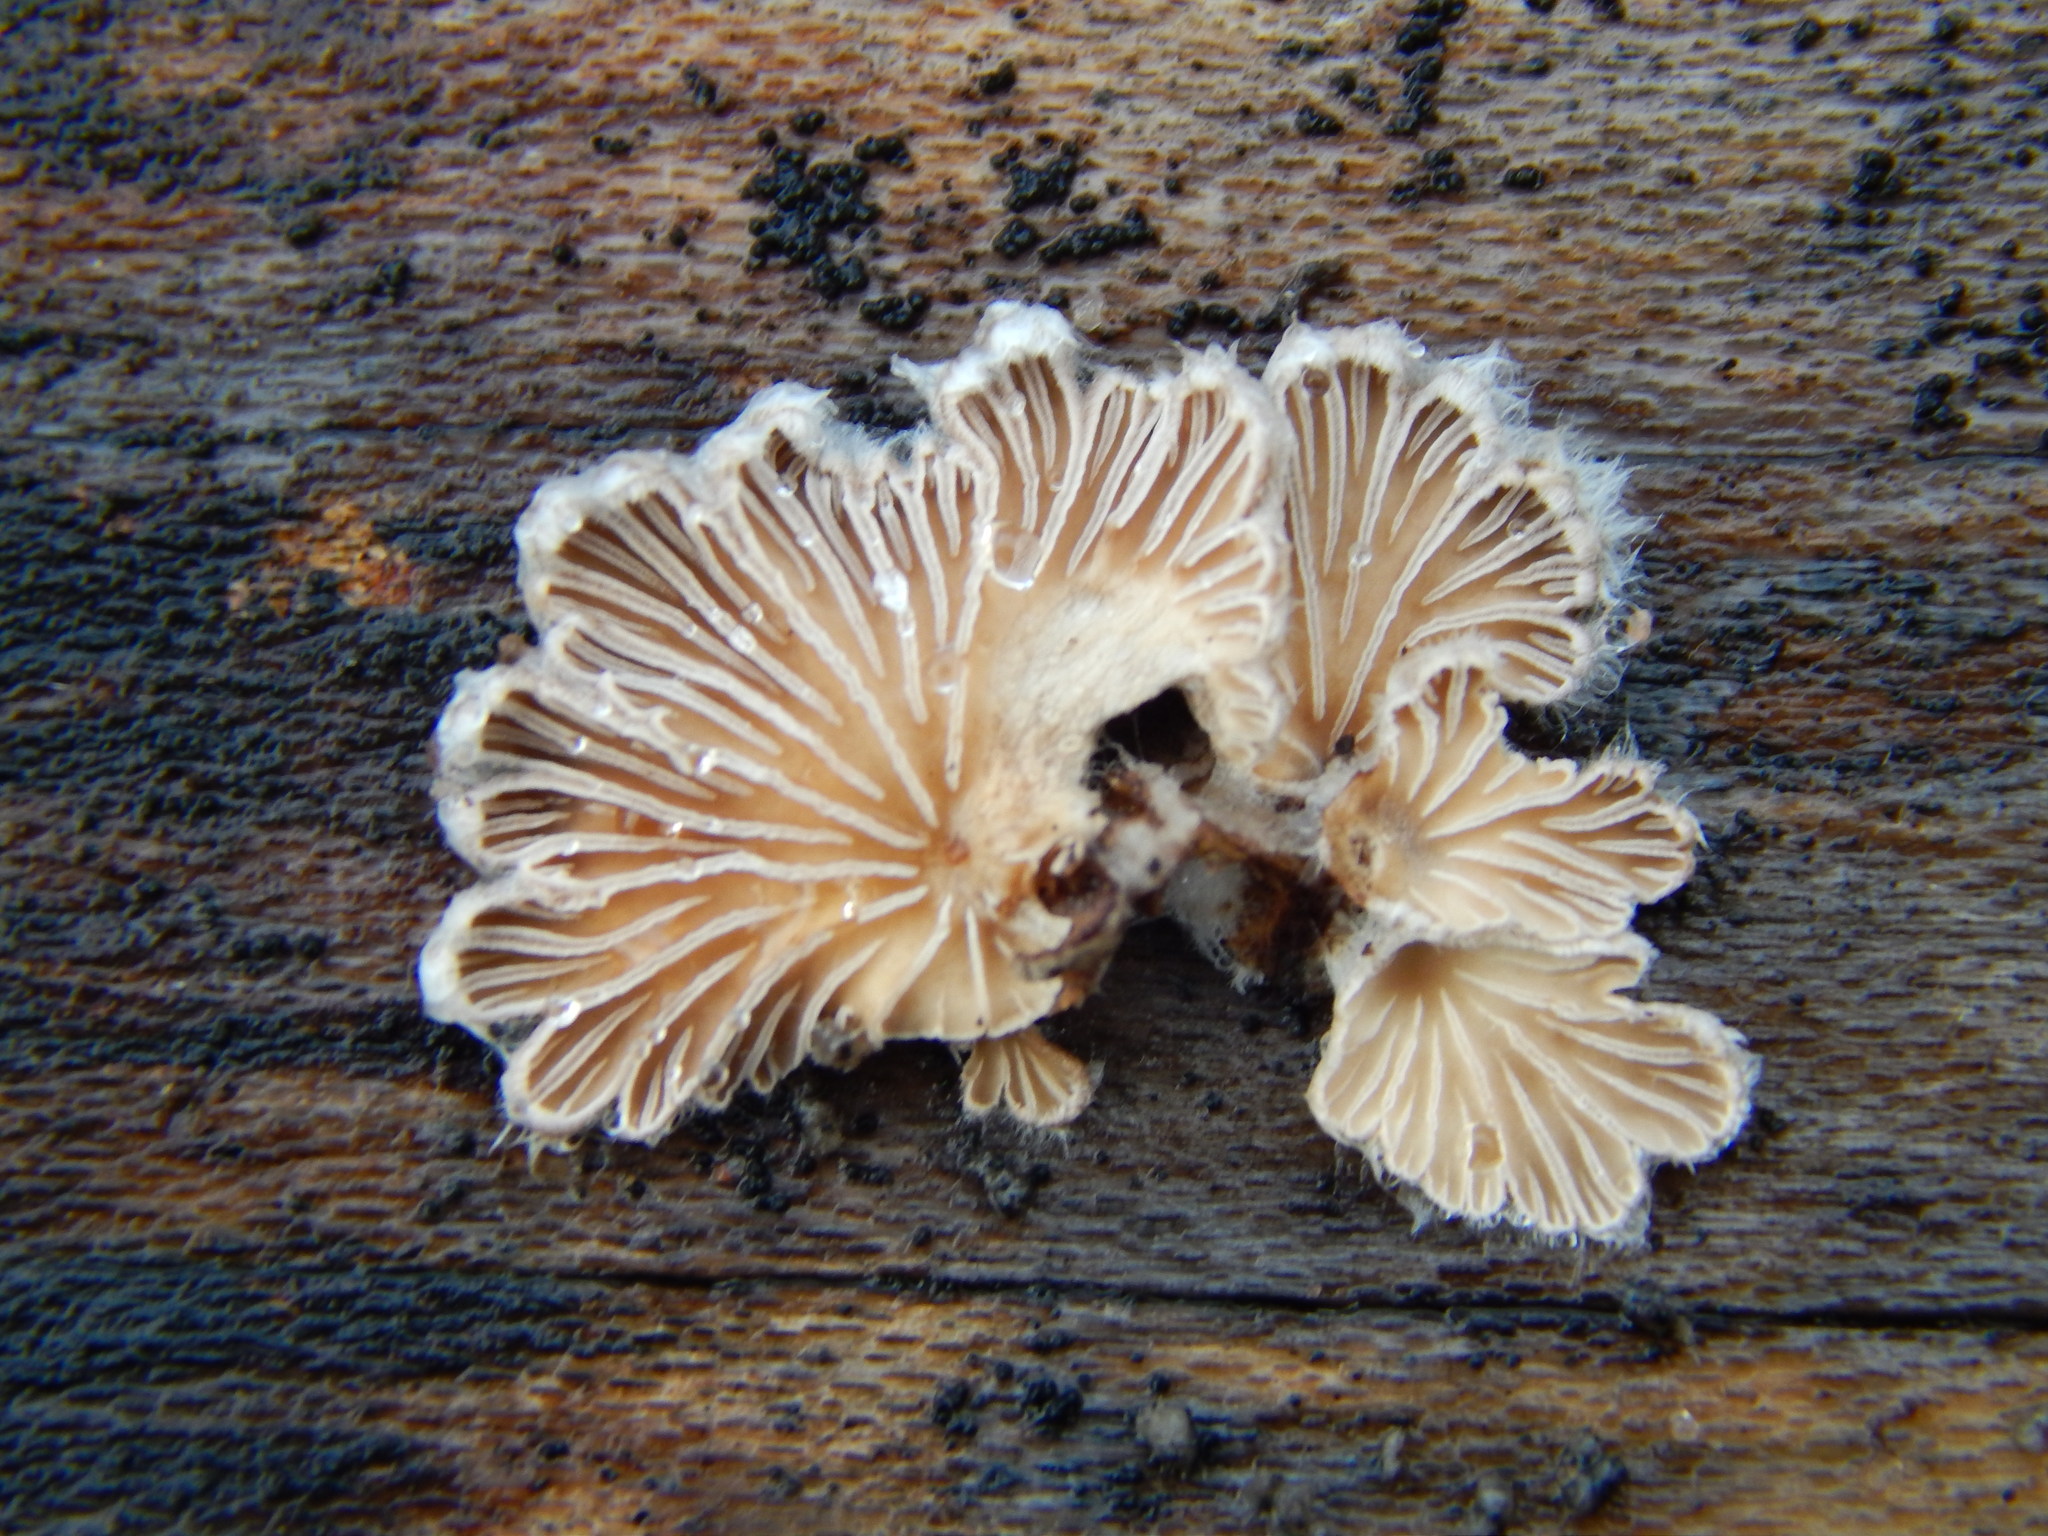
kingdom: Fungi
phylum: Basidiomycota
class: Agaricomycetes
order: Agaricales
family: Schizophyllaceae
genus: Schizophyllum
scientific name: Schizophyllum commune
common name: Common porecrust
